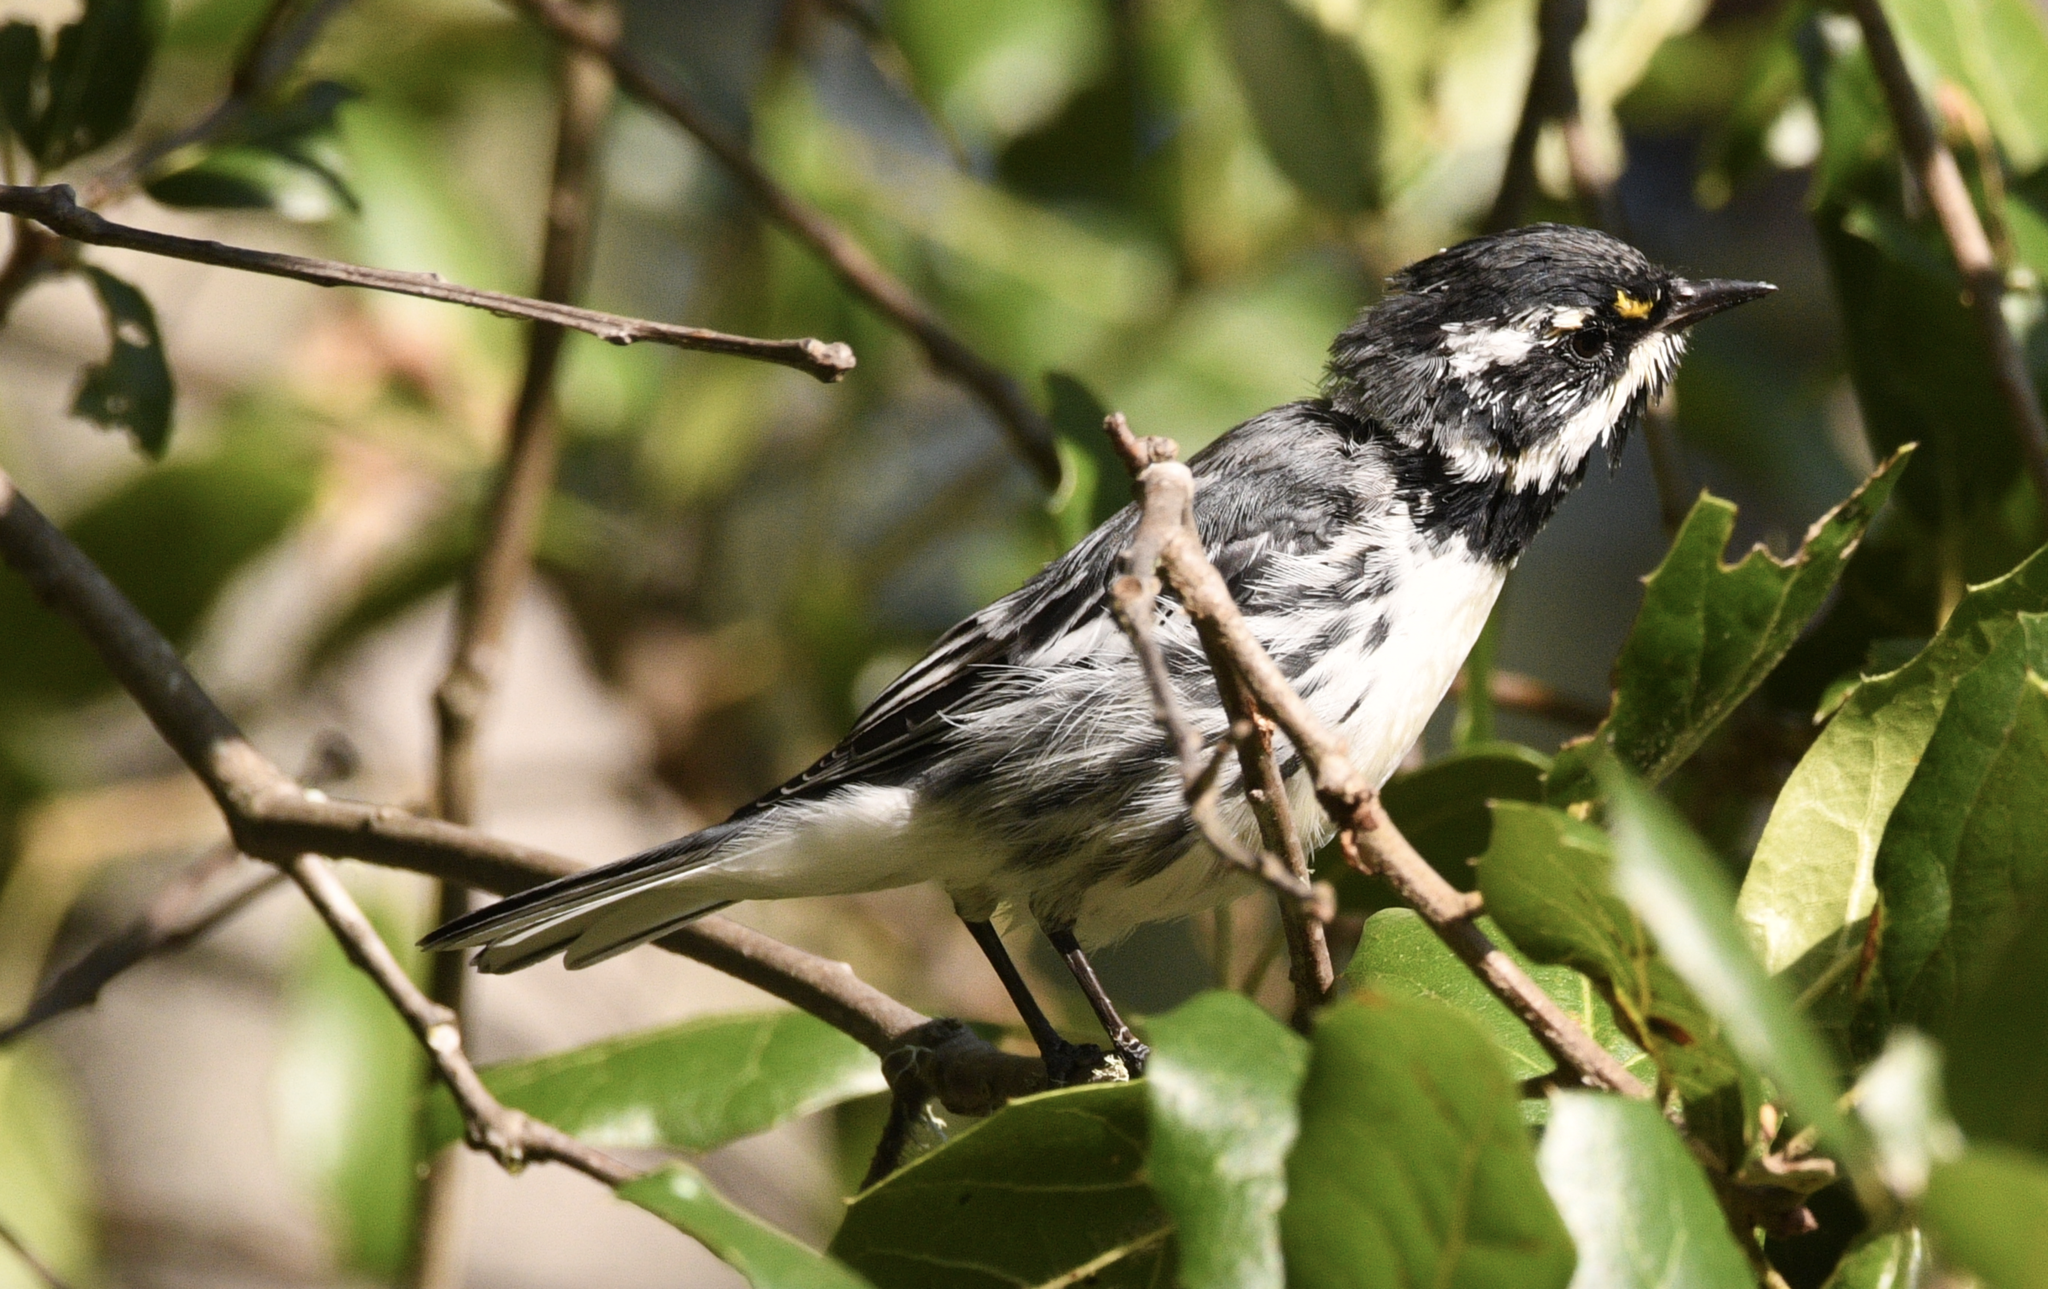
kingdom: Animalia
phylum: Chordata
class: Aves
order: Passeriformes
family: Parulidae
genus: Setophaga
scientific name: Setophaga nigrescens
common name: Black-throated gray warbler
